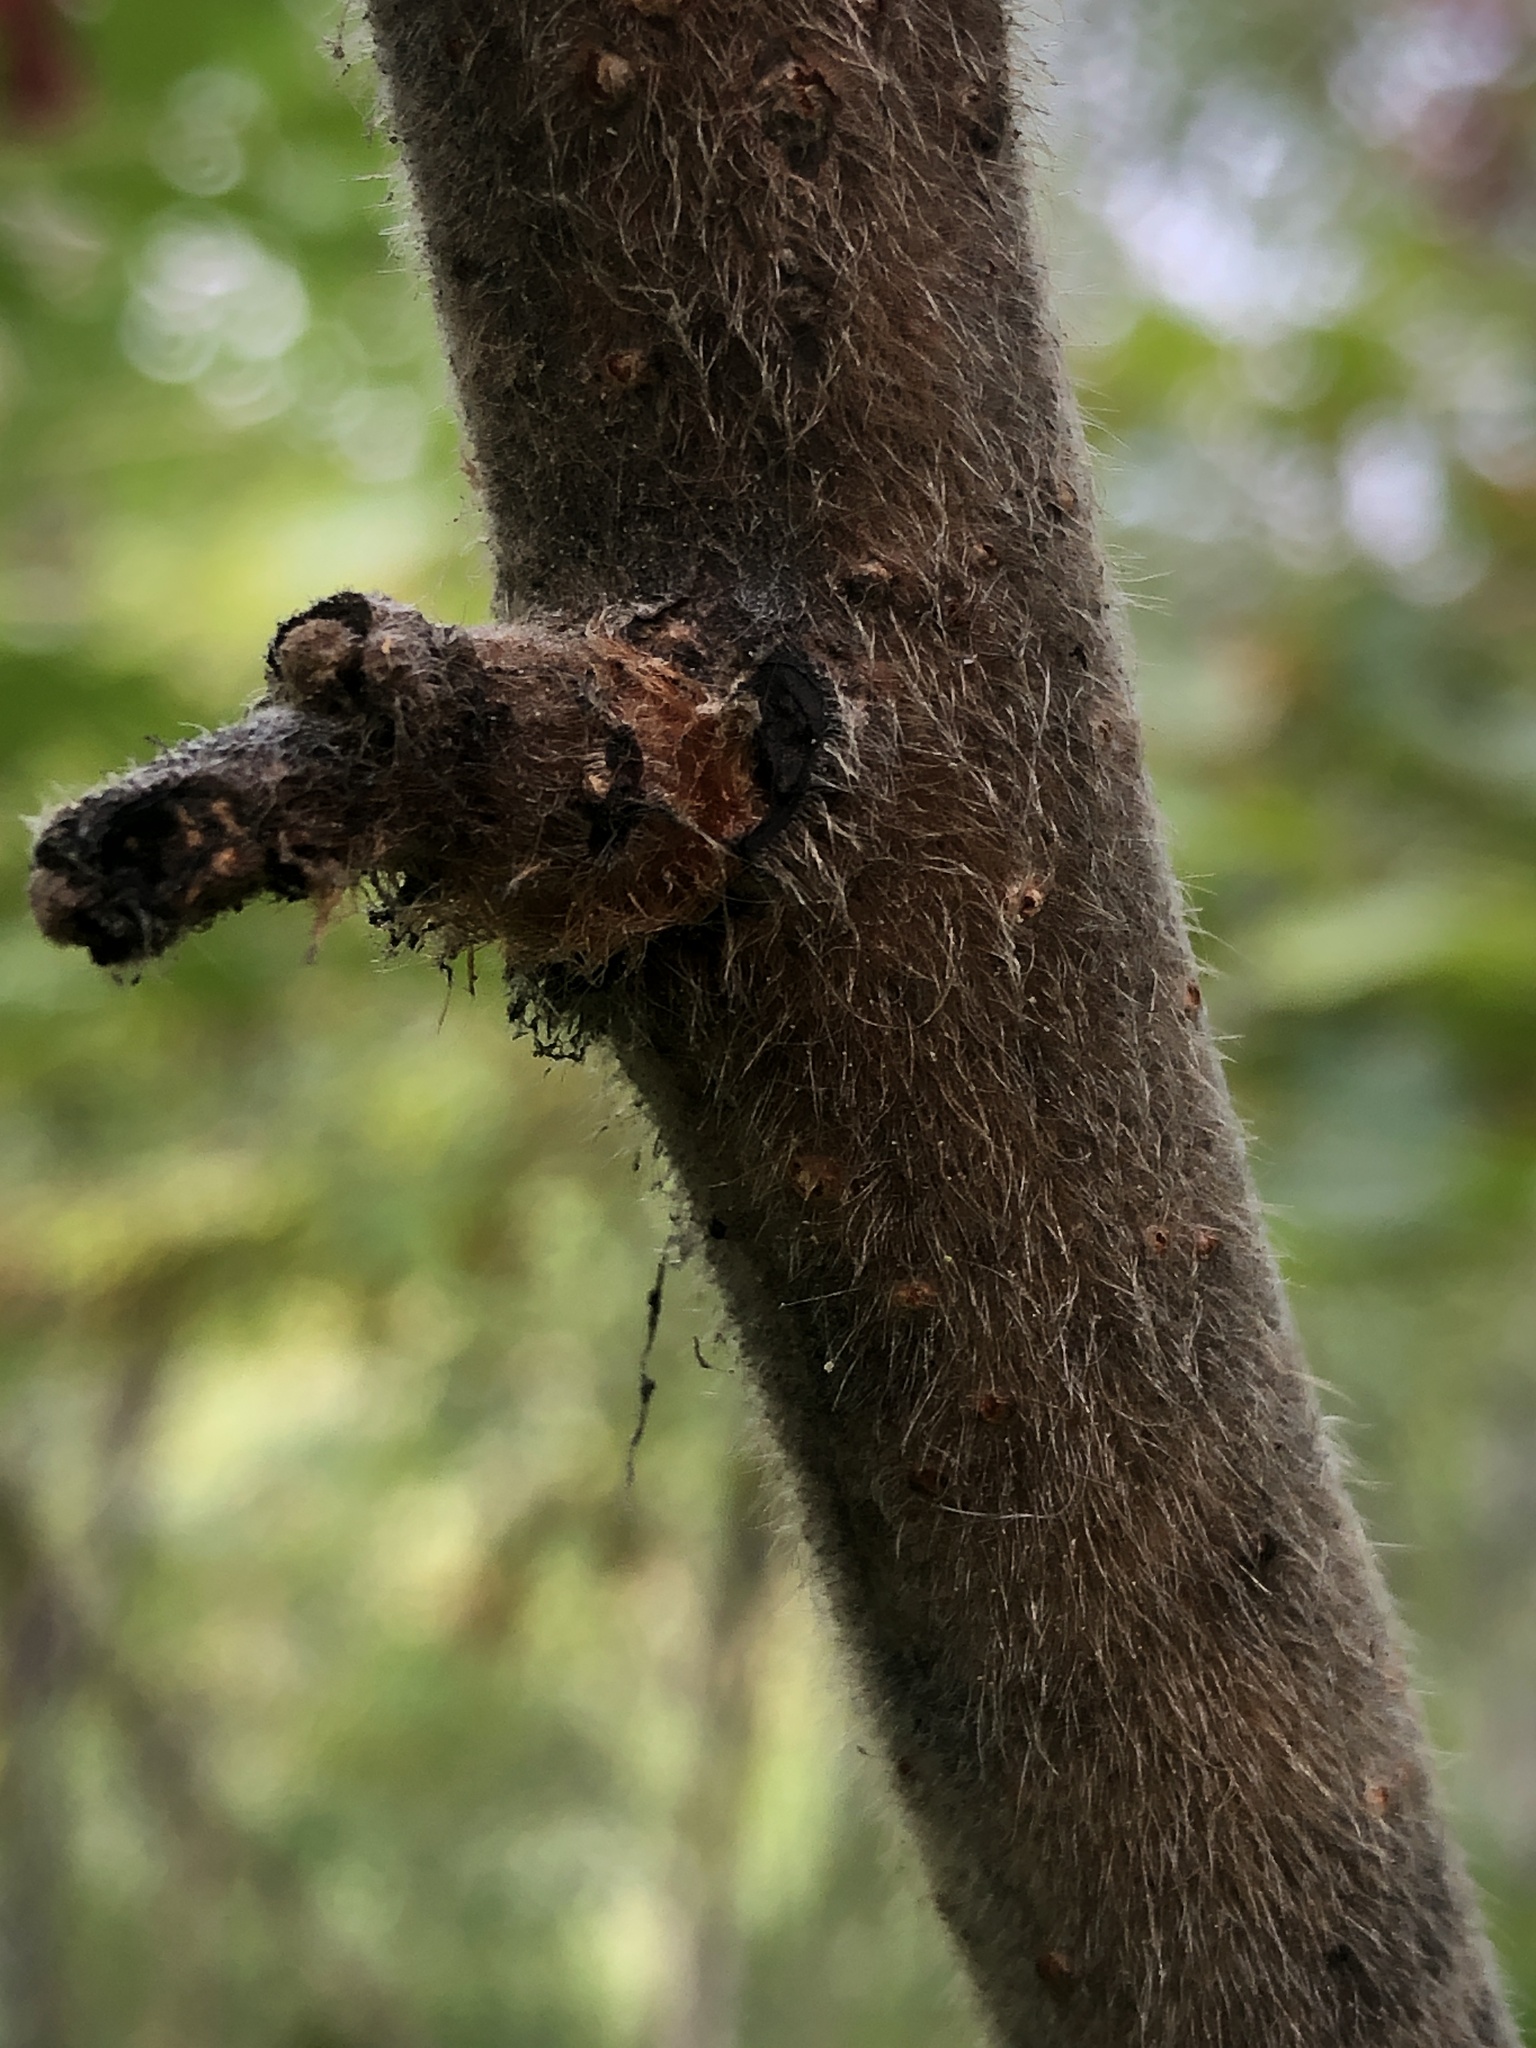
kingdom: Plantae
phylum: Tracheophyta
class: Magnoliopsida
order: Sapindales
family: Anacardiaceae
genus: Rhus
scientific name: Rhus typhina
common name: Staghorn sumac
